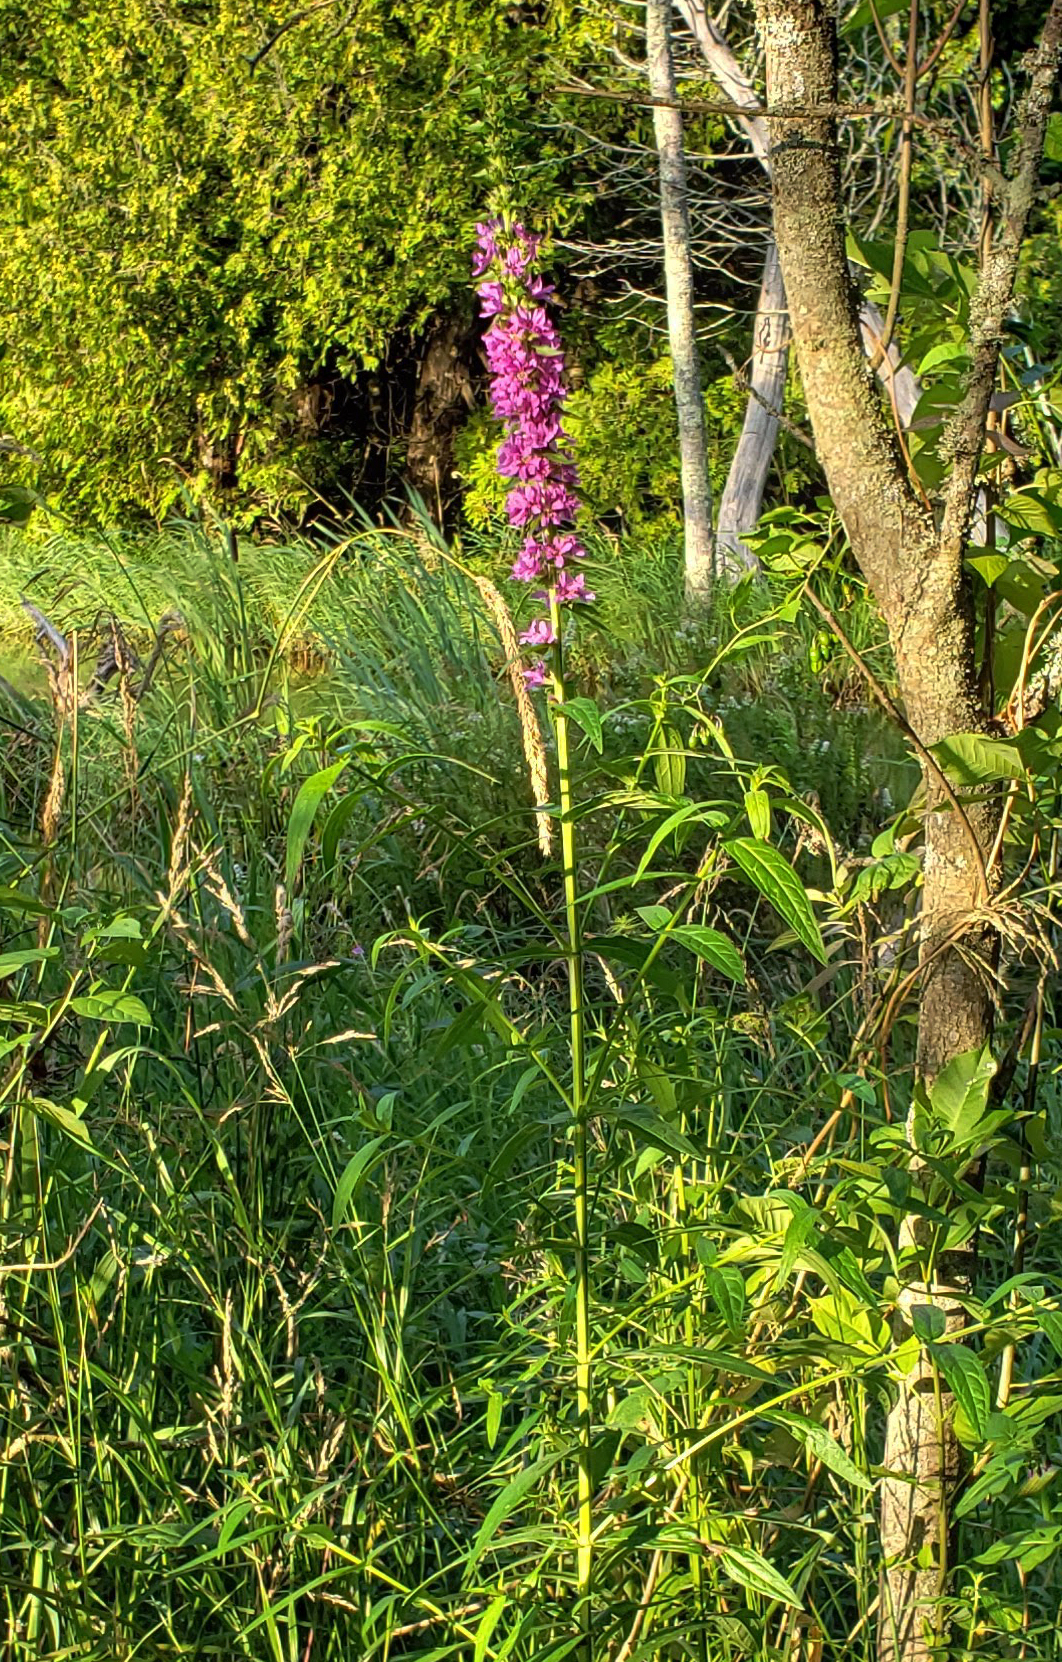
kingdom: Plantae
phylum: Tracheophyta
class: Magnoliopsida
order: Myrtales
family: Lythraceae
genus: Lythrum
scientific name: Lythrum salicaria
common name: Purple loosestrife
